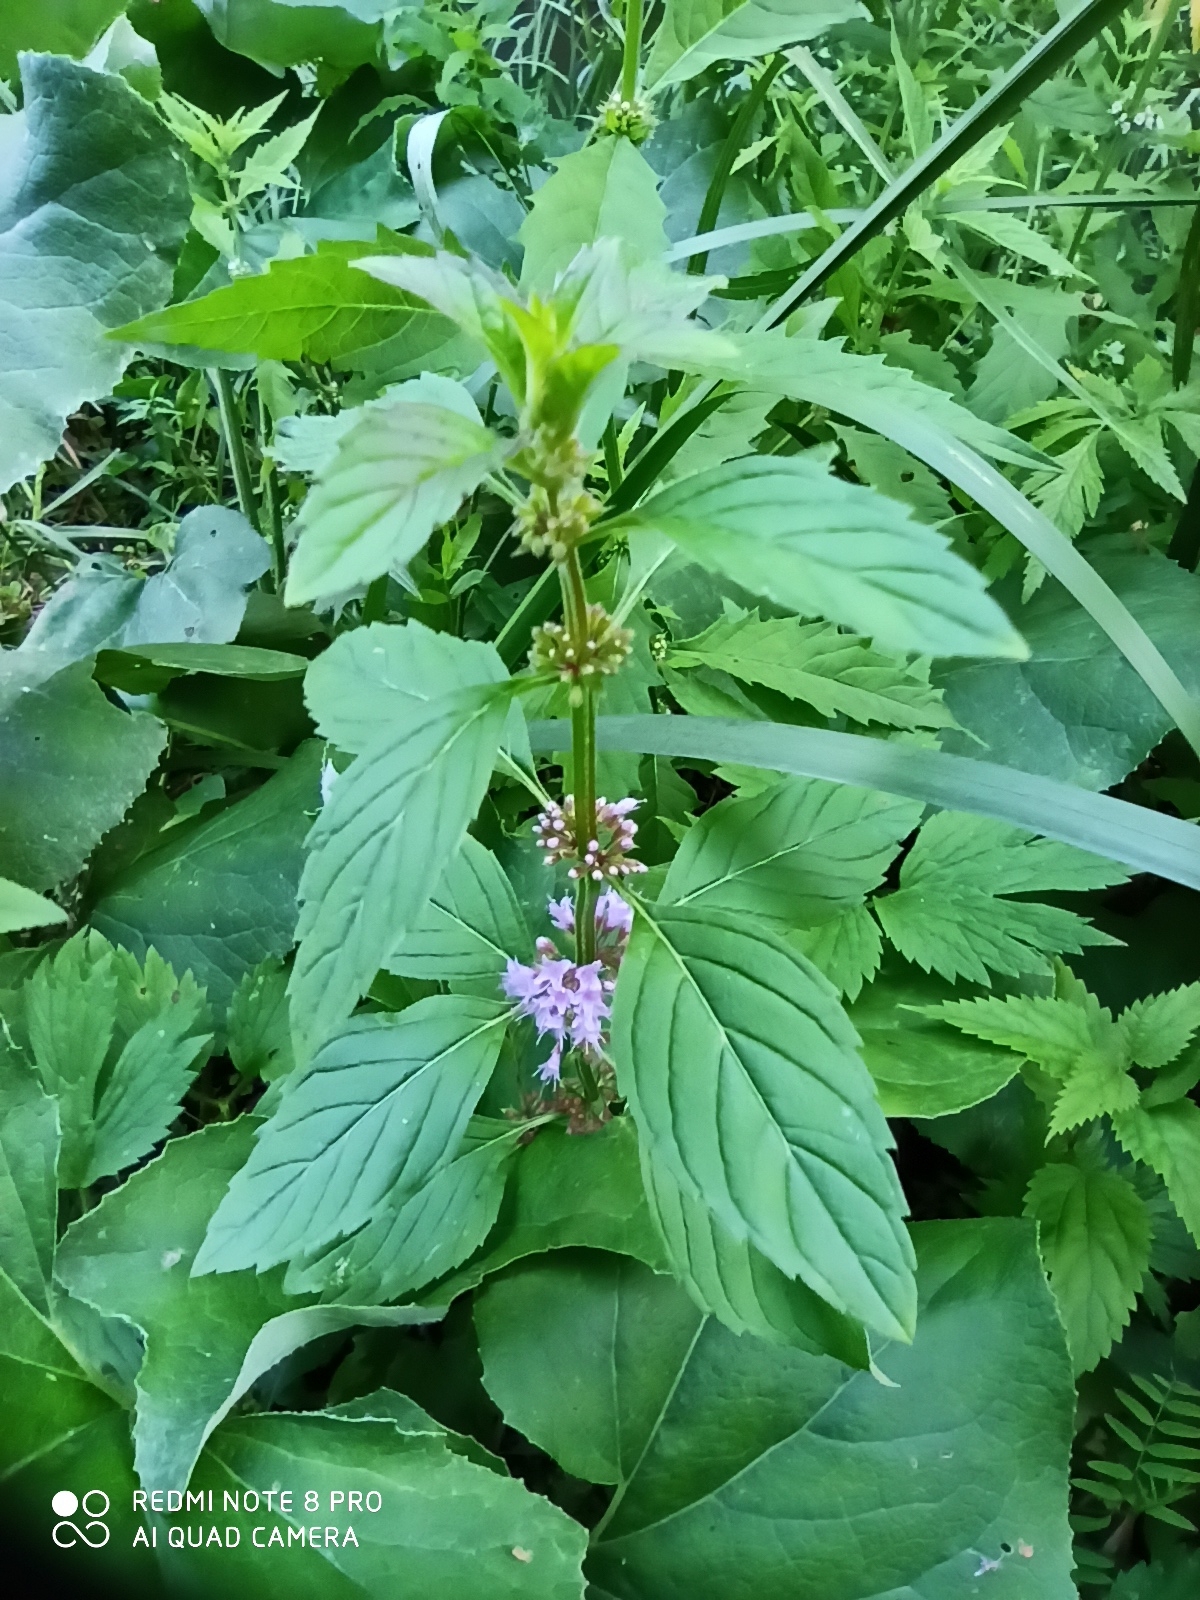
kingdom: Plantae
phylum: Tracheophyta
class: Magnoliopsida
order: Lamiales
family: Lamiaceae
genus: Mentha
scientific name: Mentha arvensis
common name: Corn mint
